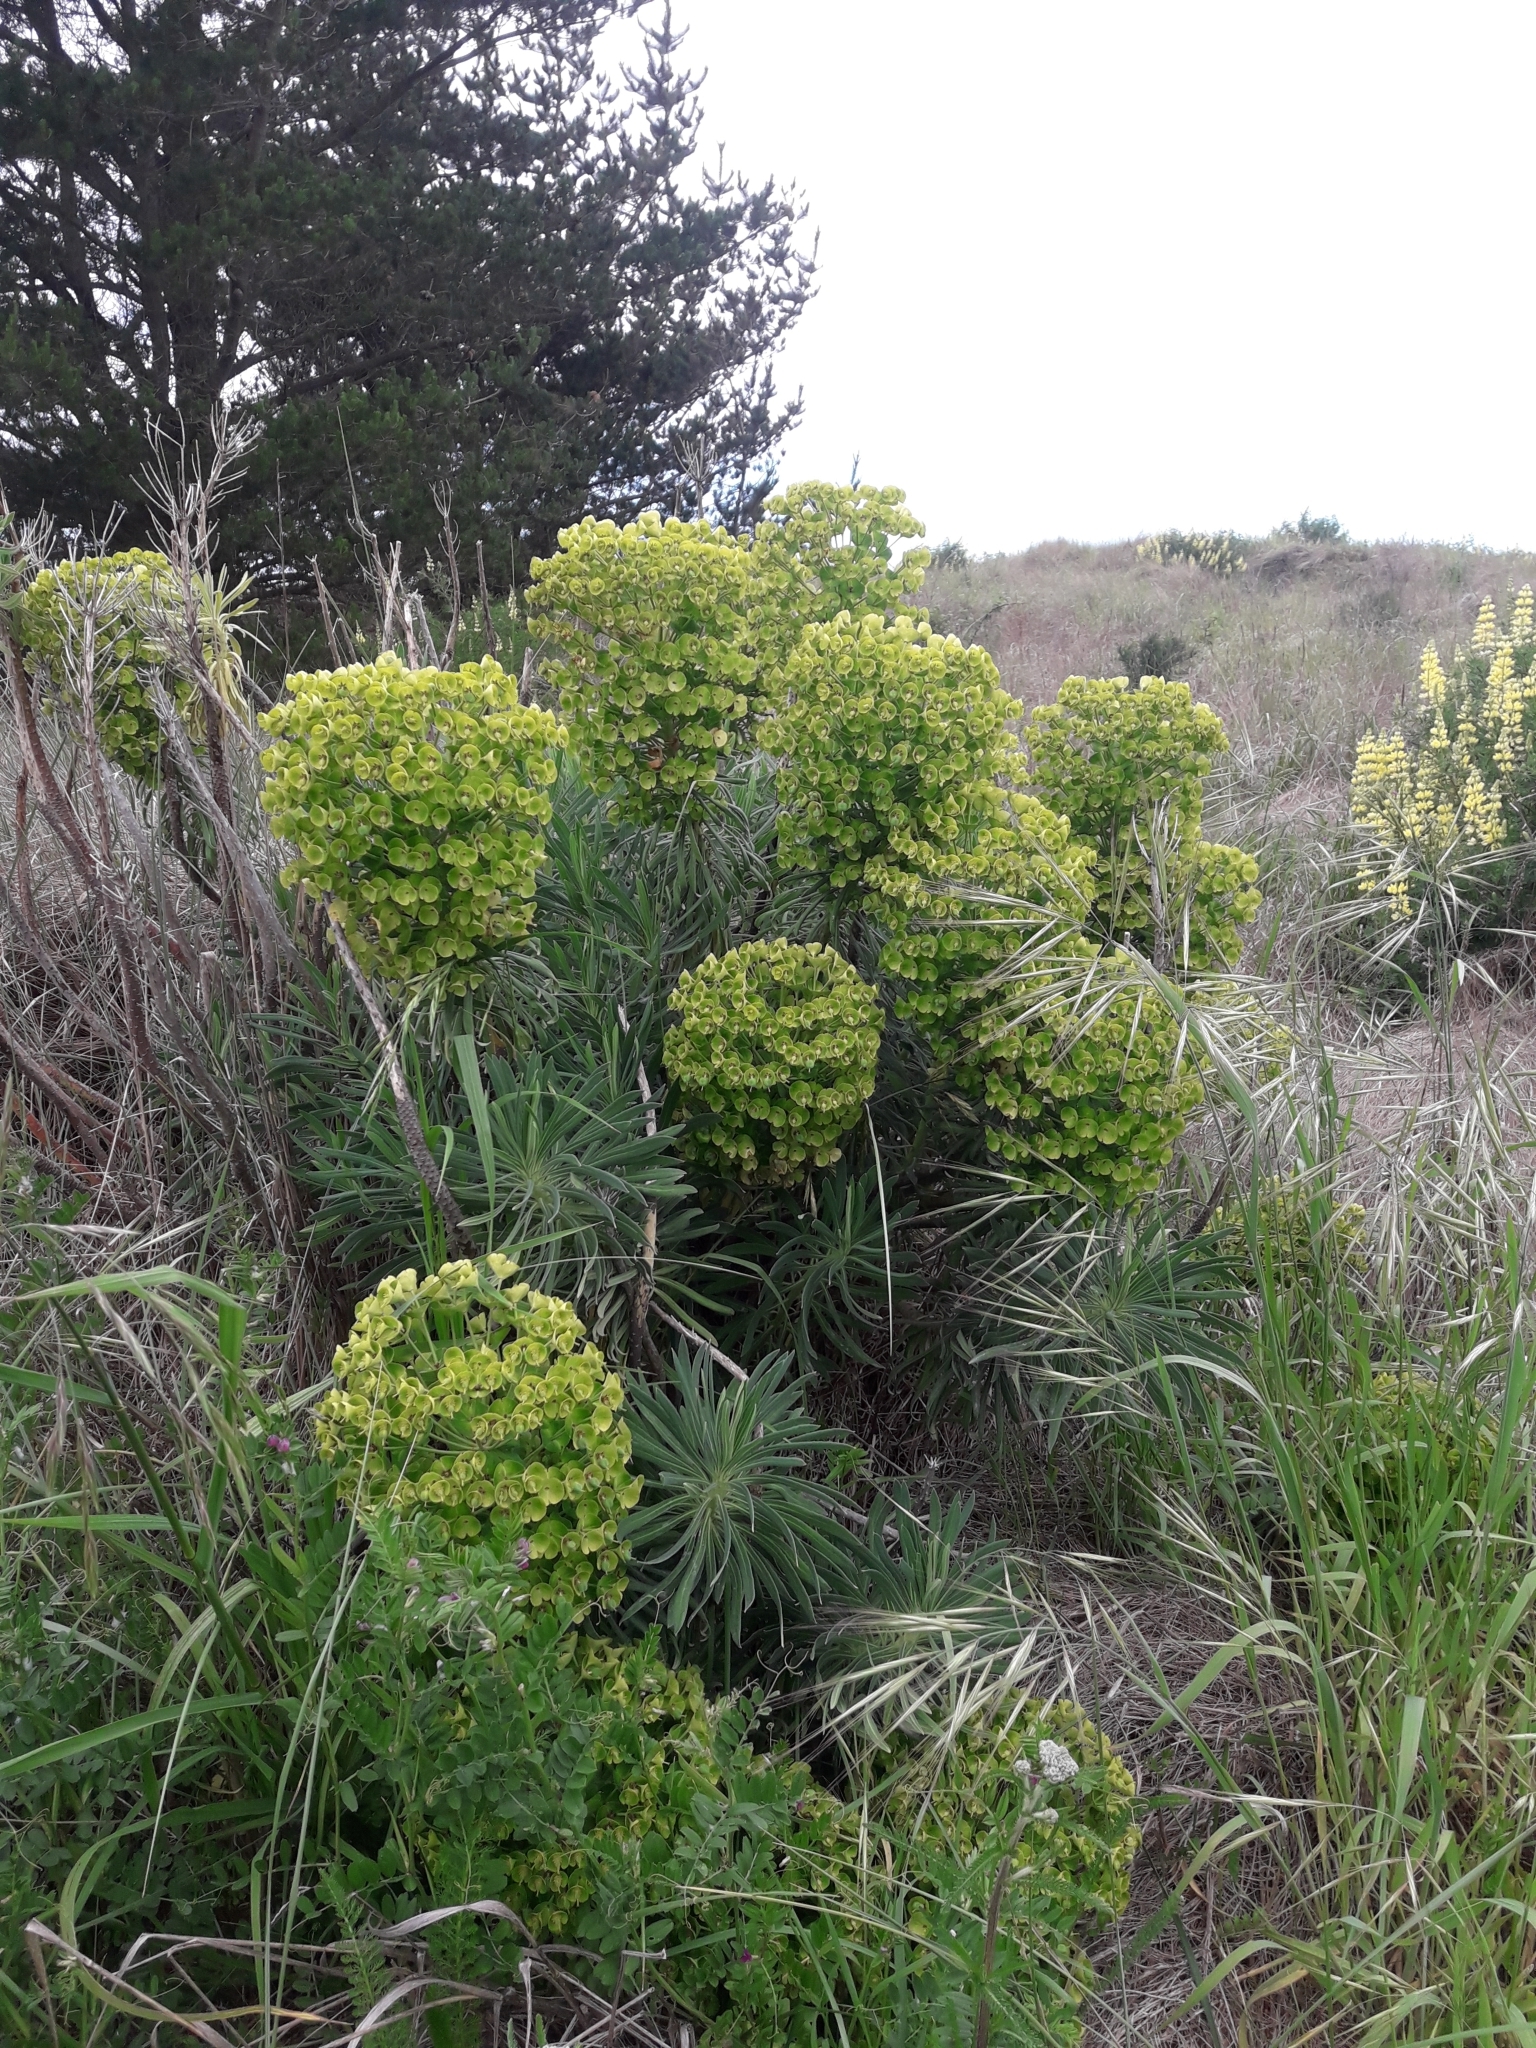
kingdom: Plantae
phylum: Tracheophyta
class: Magnoliopsida
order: Malpighiales
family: Euphorbiaceae
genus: Euphorbia
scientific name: Euphorbia characias
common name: Mediterranean spurge
